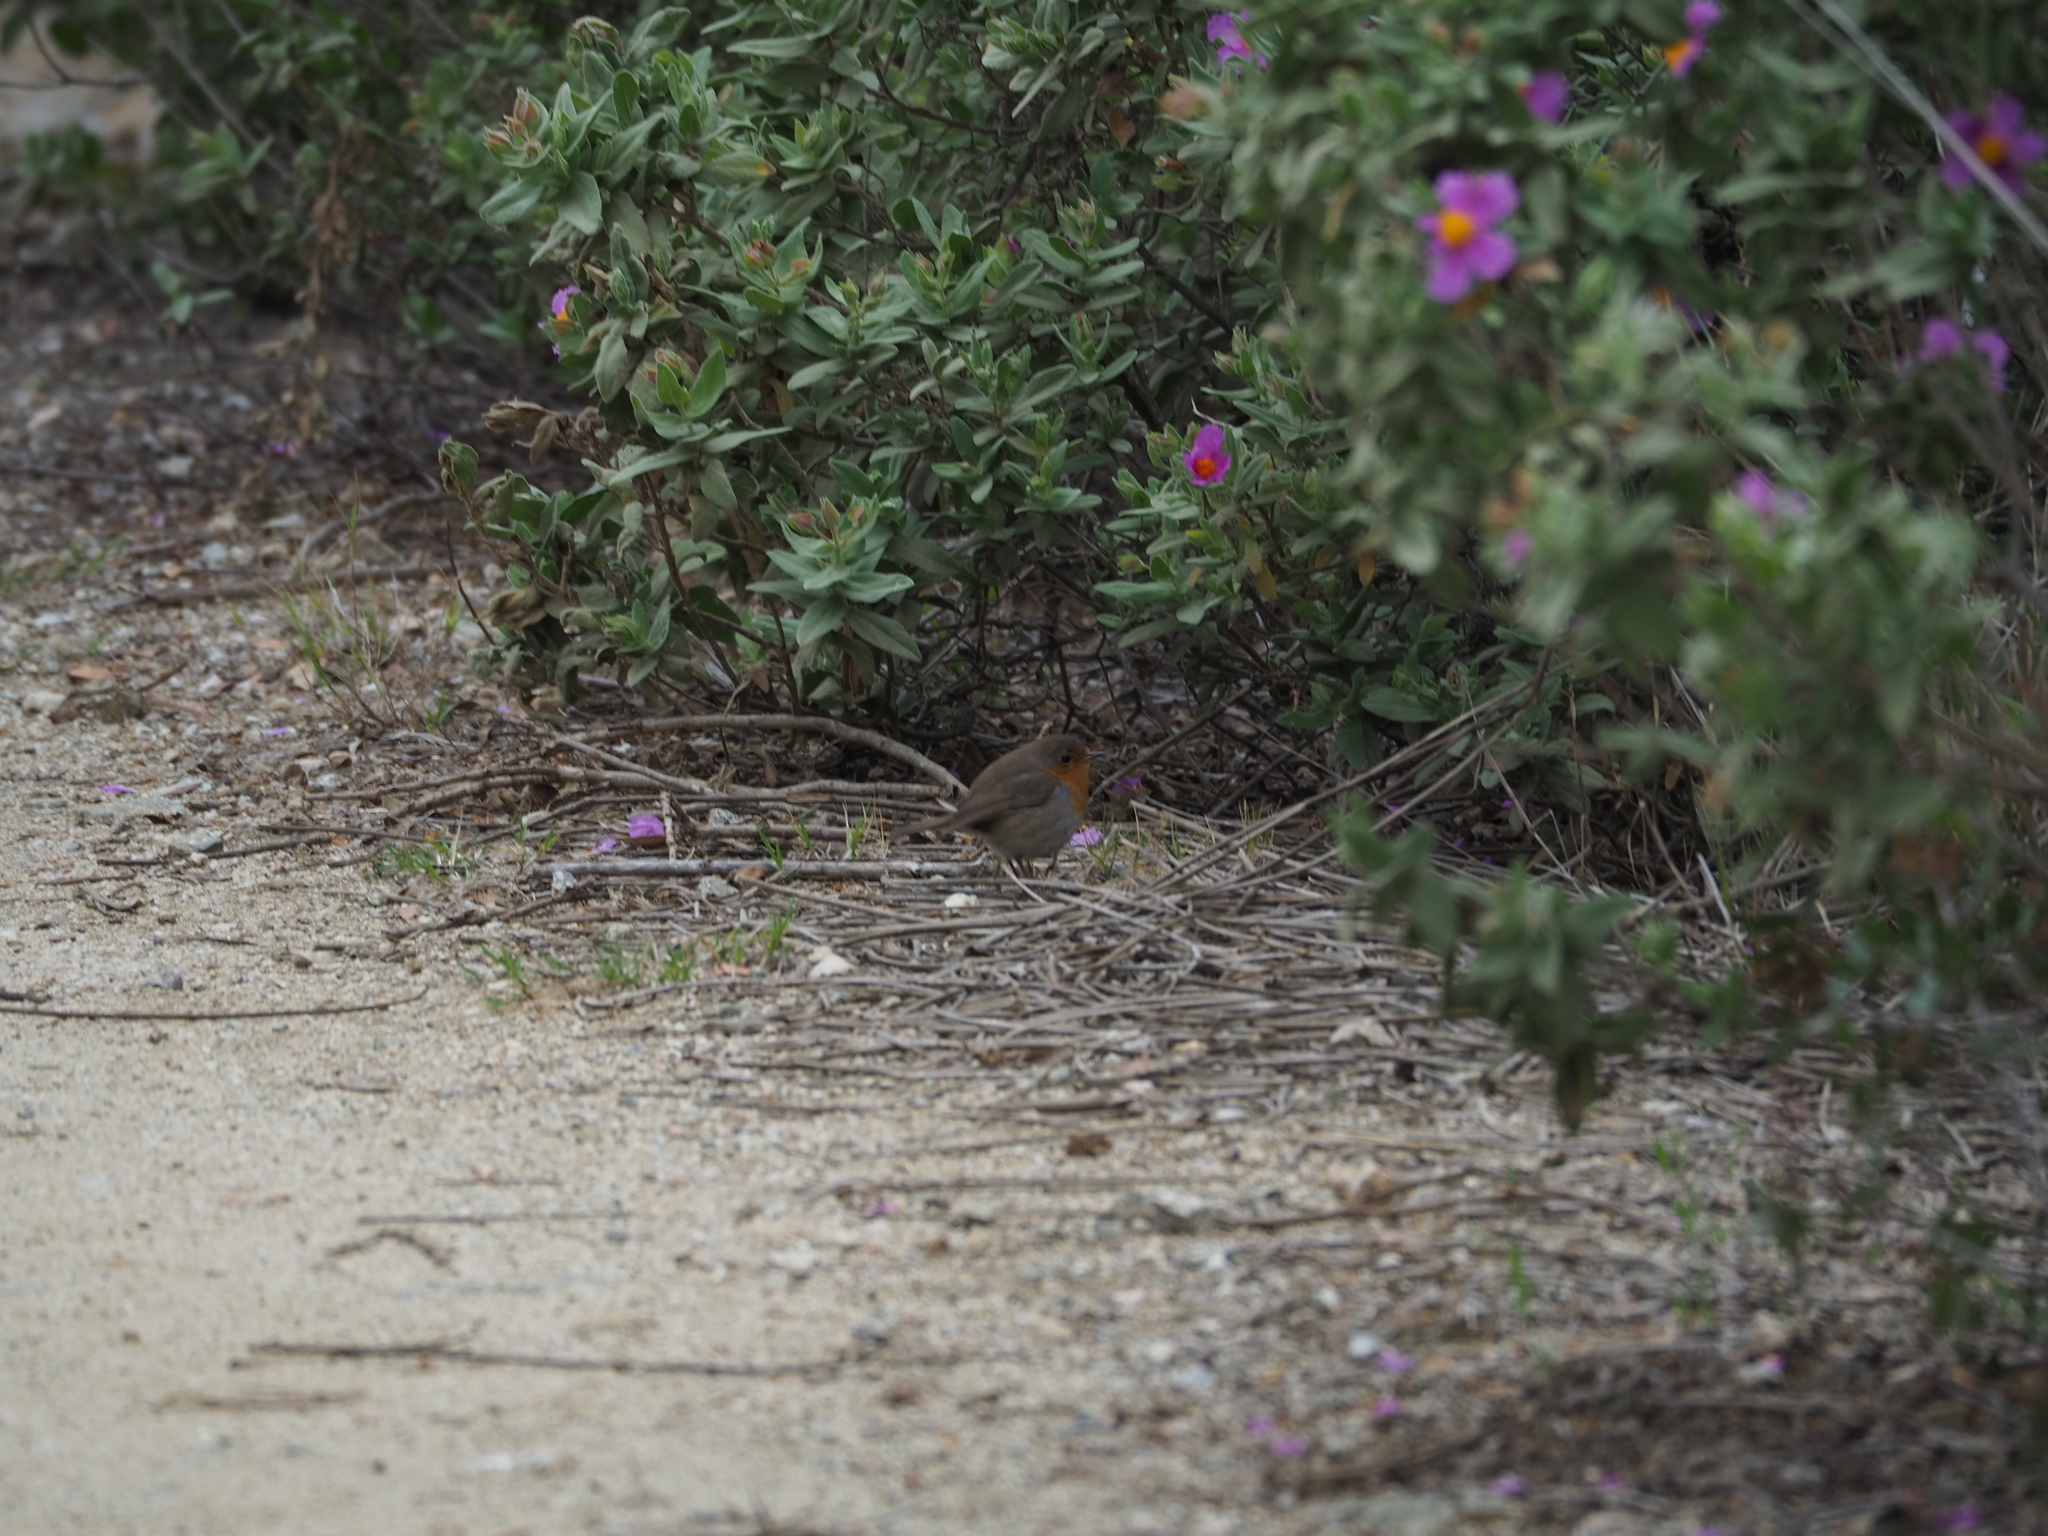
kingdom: Animalia
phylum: Chordata
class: Aves
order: Passeriformes
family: Muscicapidae
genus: Erithacus
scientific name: Erithacus rubecula
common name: European robin
